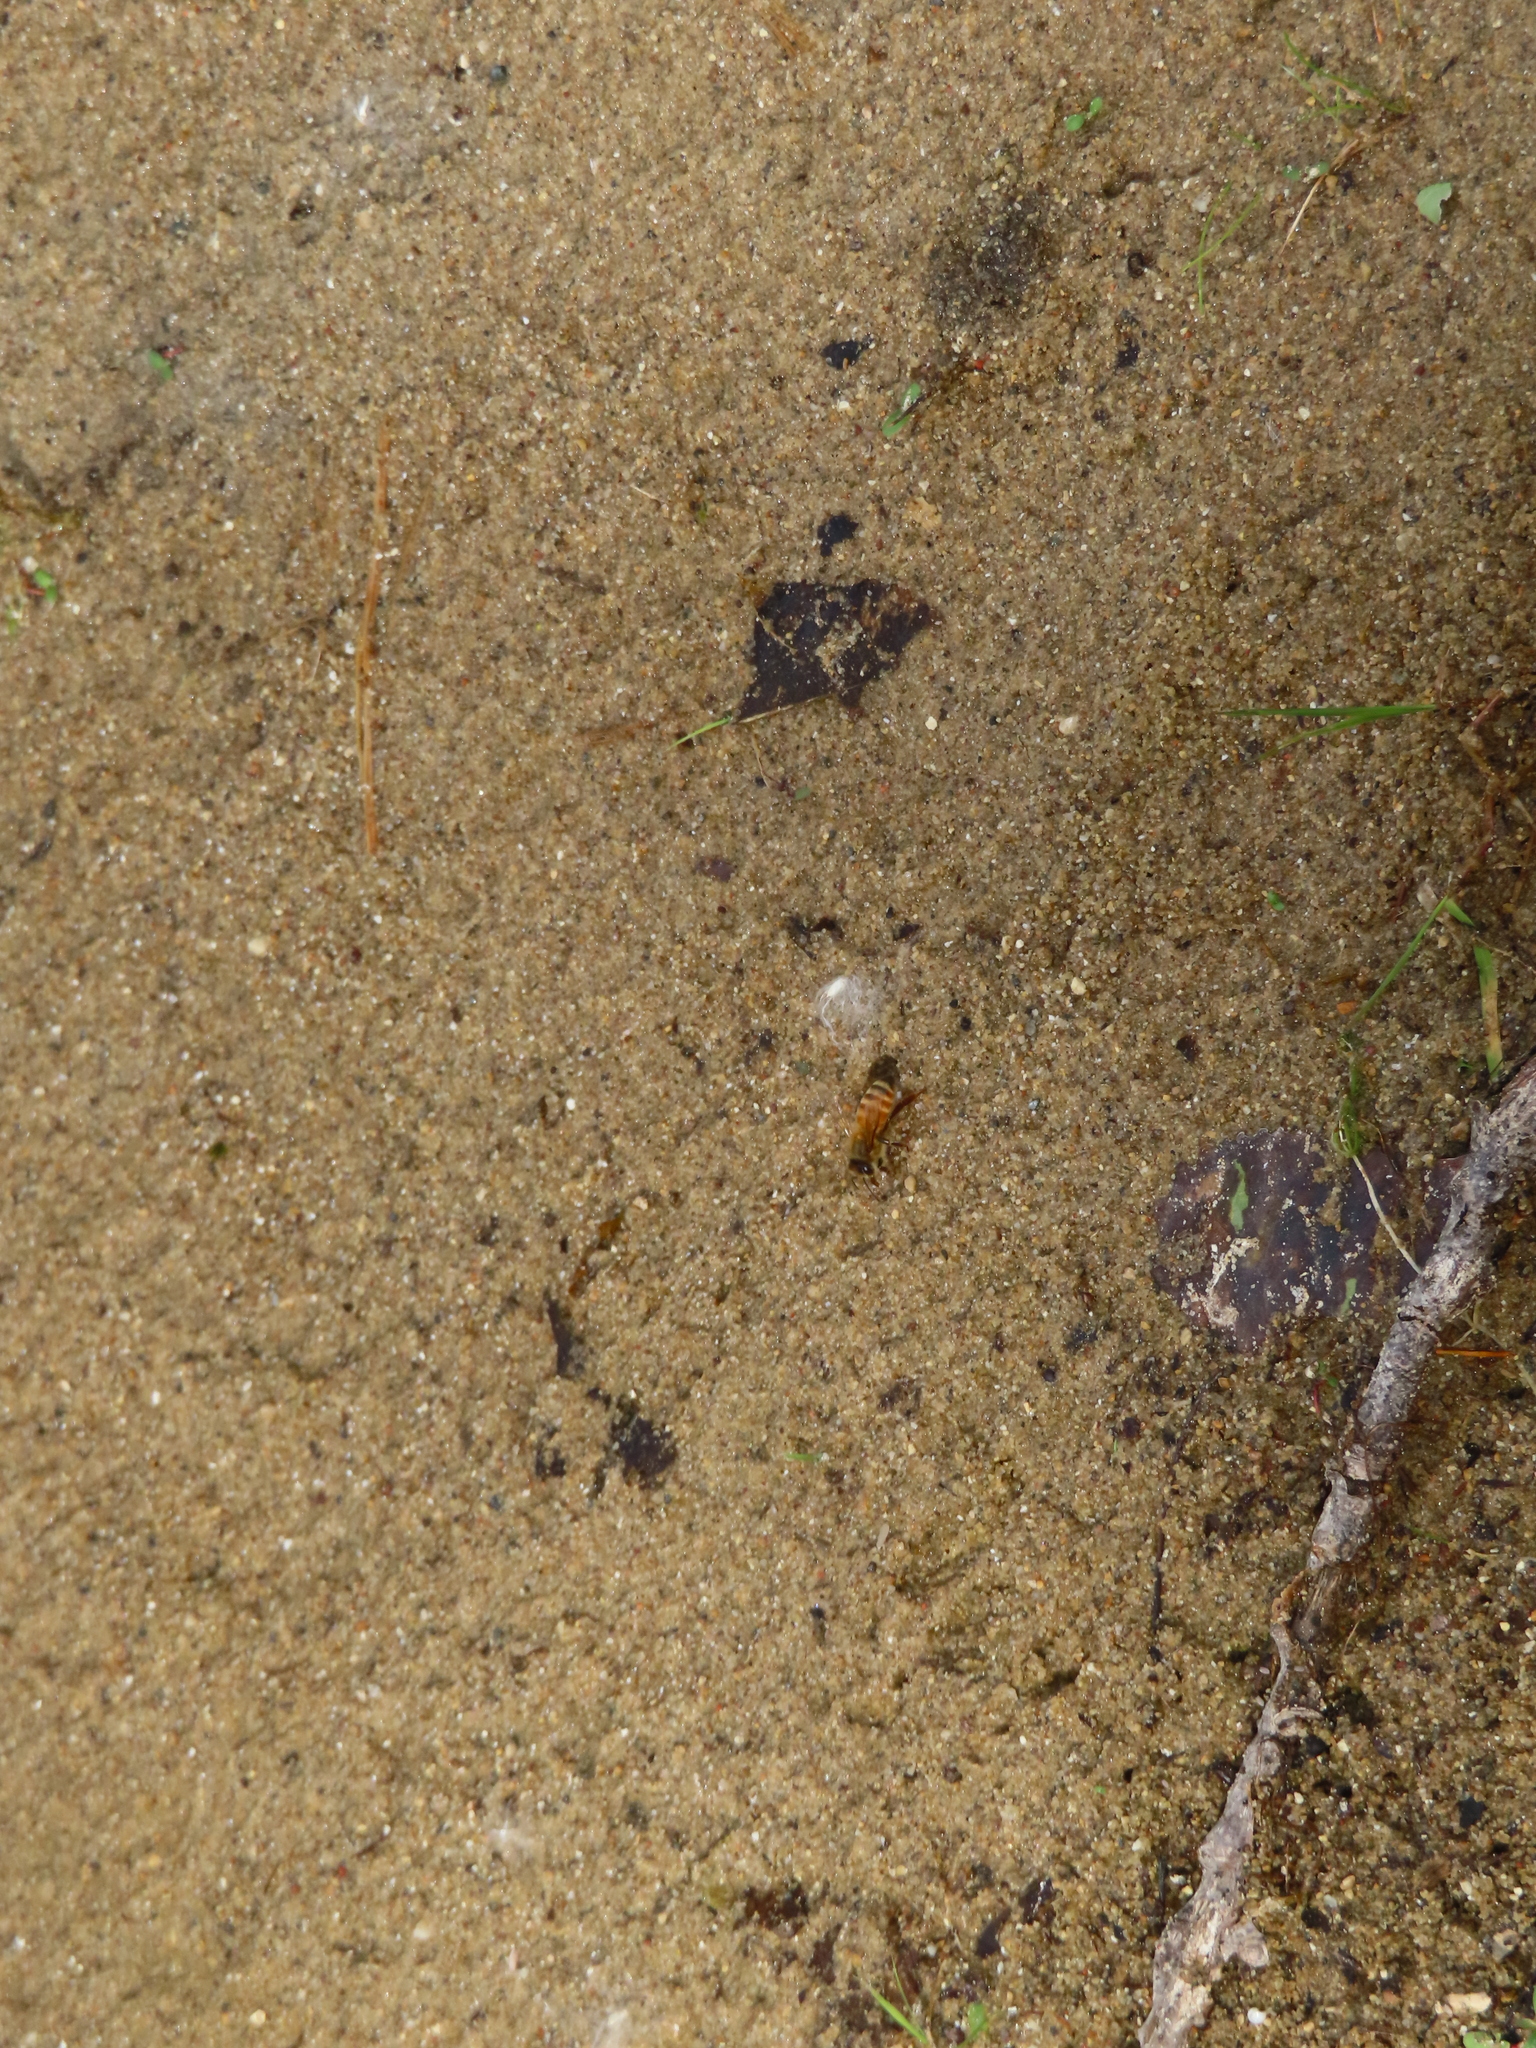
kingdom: Animalia
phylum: Arthropoda
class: Insecta
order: Hymenoptera
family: Apidae
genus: Apis
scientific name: Apis mellifera
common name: Honey bee
